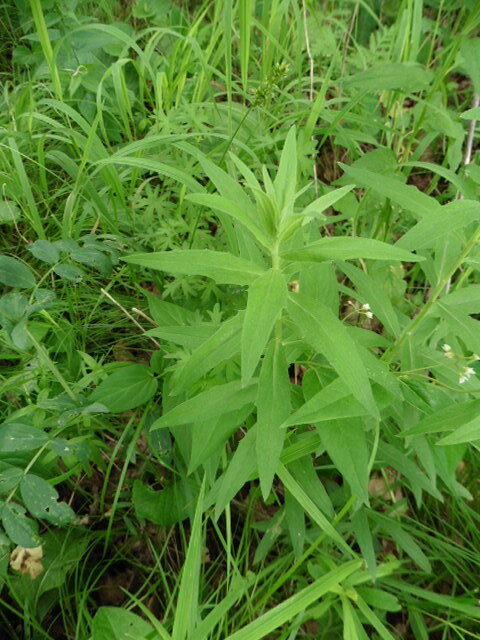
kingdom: Plantae
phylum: Tracheophyta
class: Magnoliopsida
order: Asterales
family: Asteraceae
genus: Hieracium
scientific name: Hieracium umbellatum
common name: Northern hawkweed
